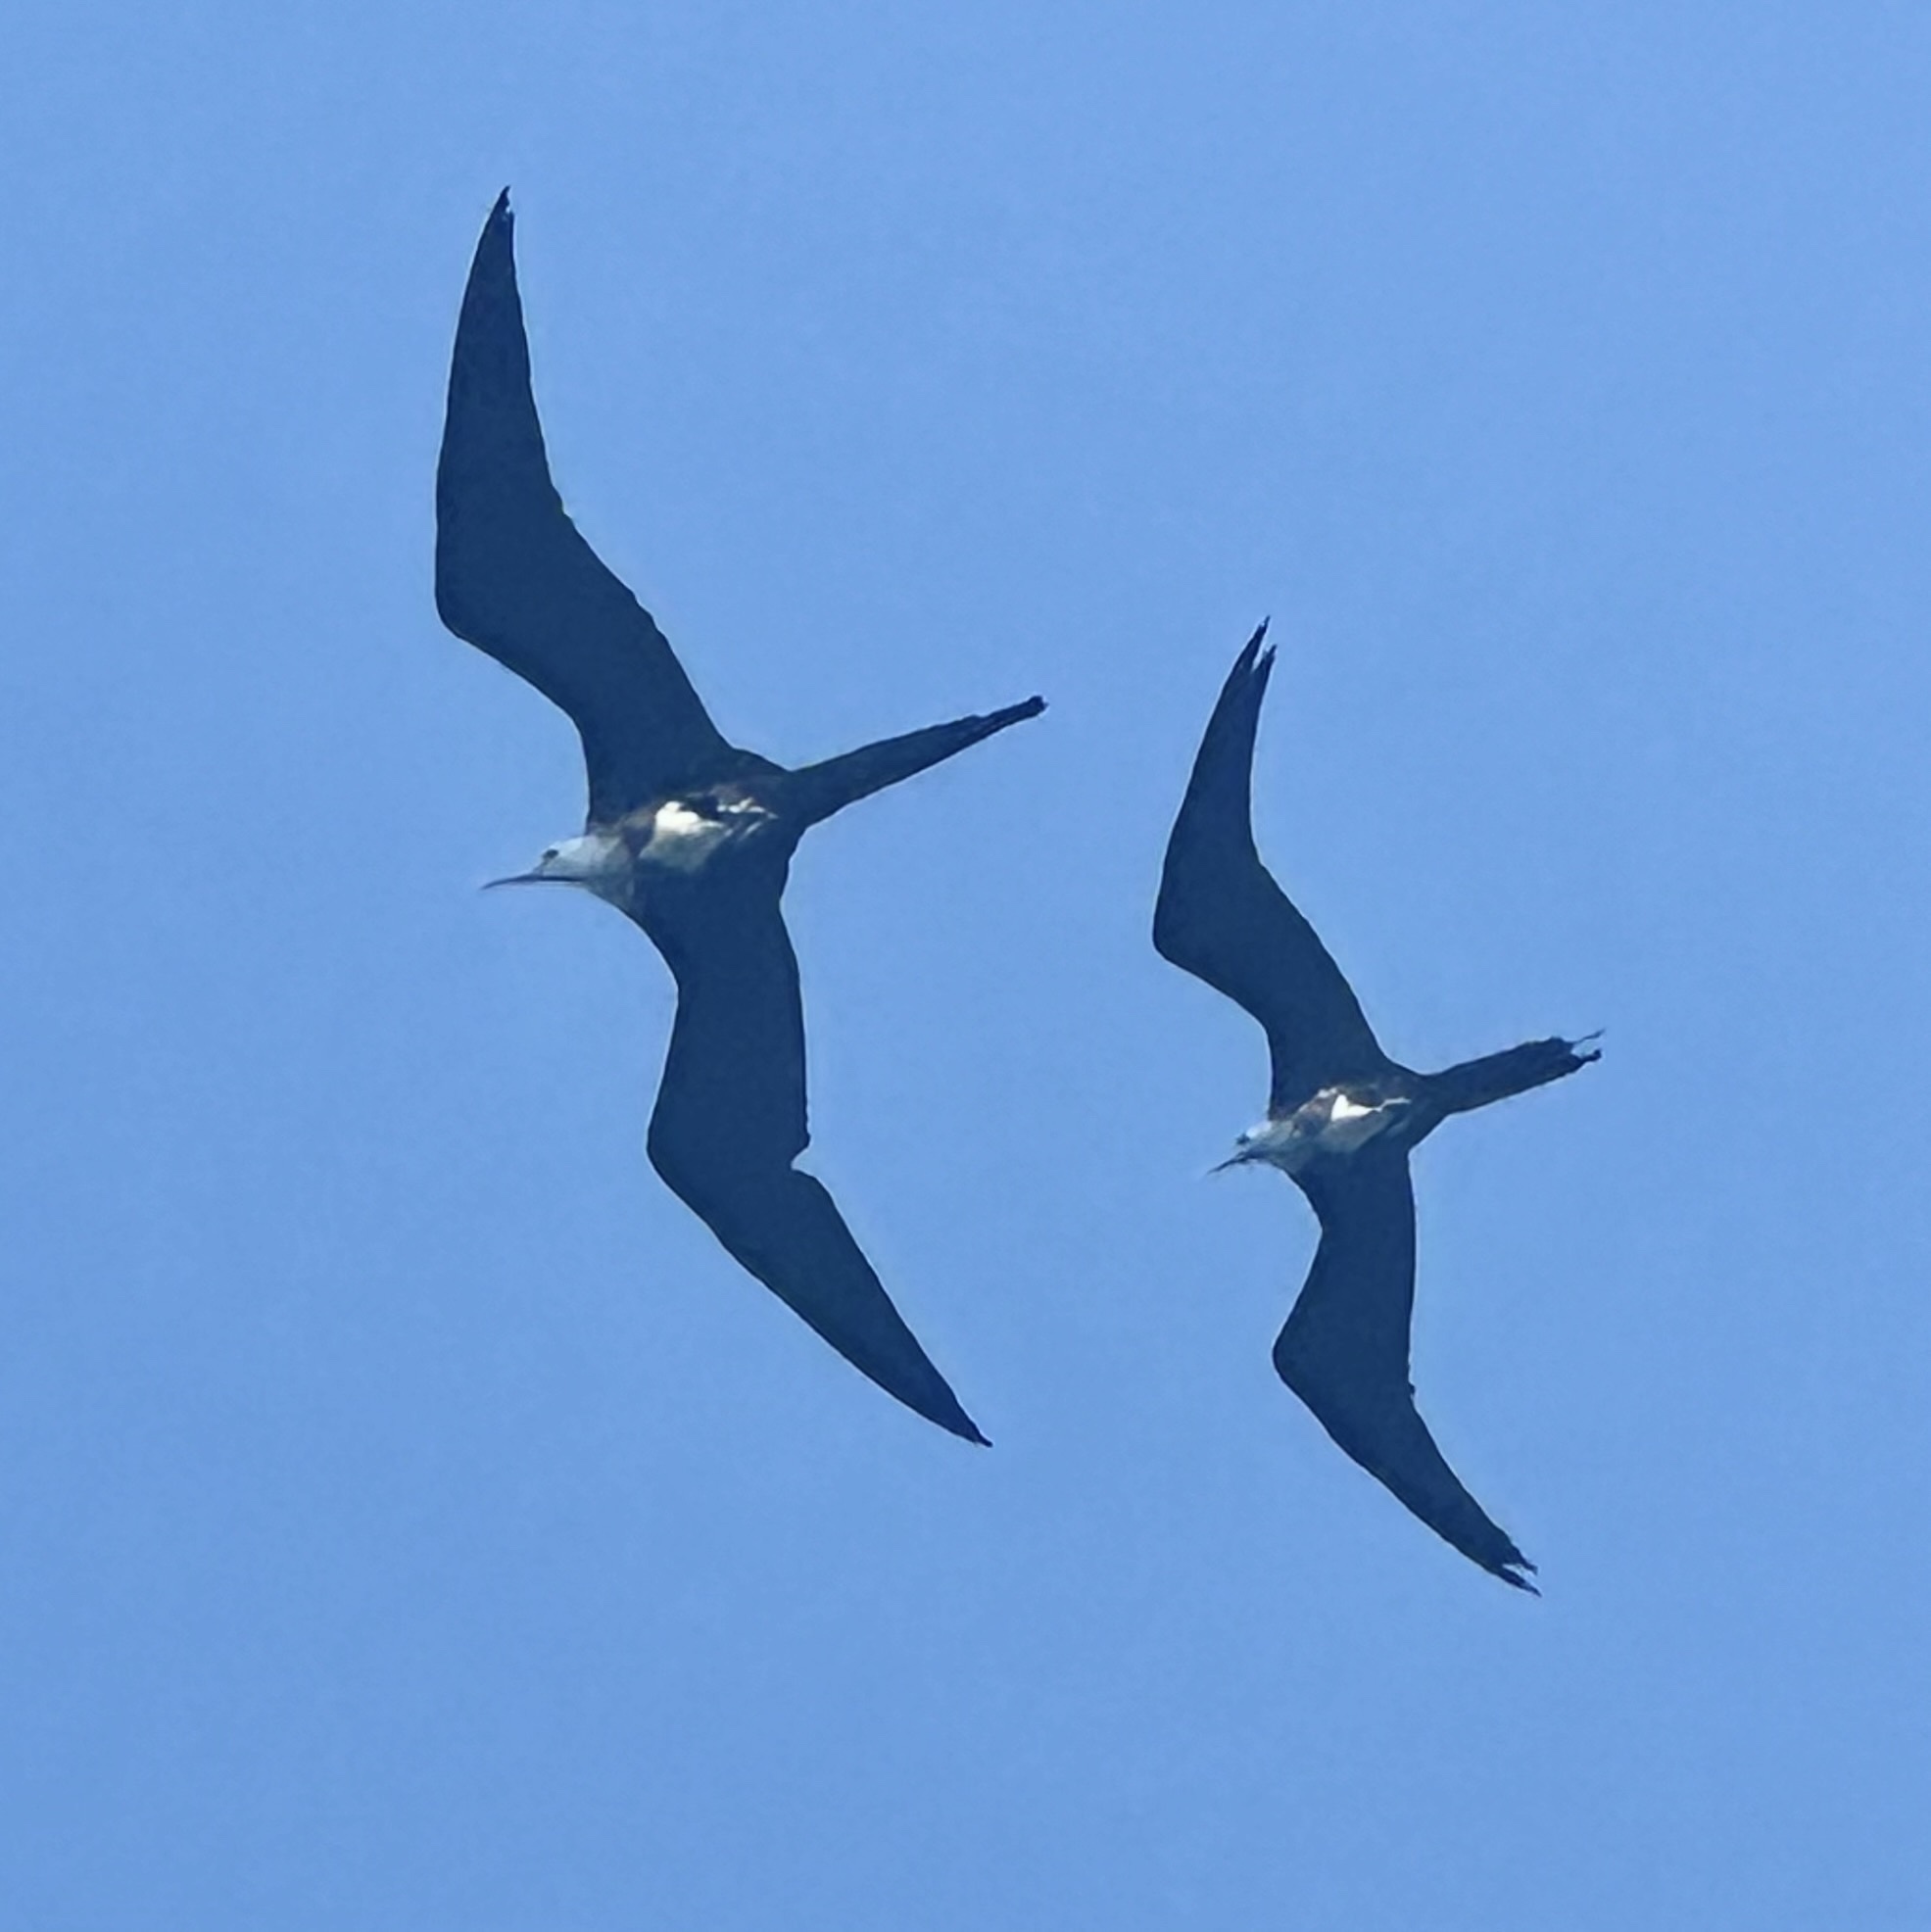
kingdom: Animalia
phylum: Chordata
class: Aves
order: Suliformes
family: Fregatidae
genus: Fregata
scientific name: Fregata magnificens
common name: Magnificent frigatebird
